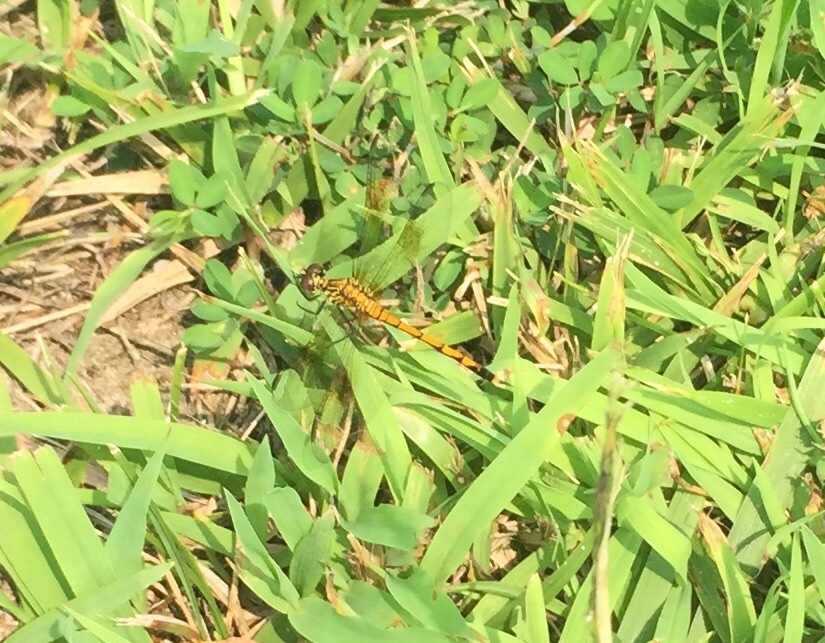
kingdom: Animalia
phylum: Arthropoda
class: Insecta
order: Odonata
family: Libellulidae
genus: Erythrodiplax
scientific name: Erythrodiplax berenice
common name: Seaside dragonlet
